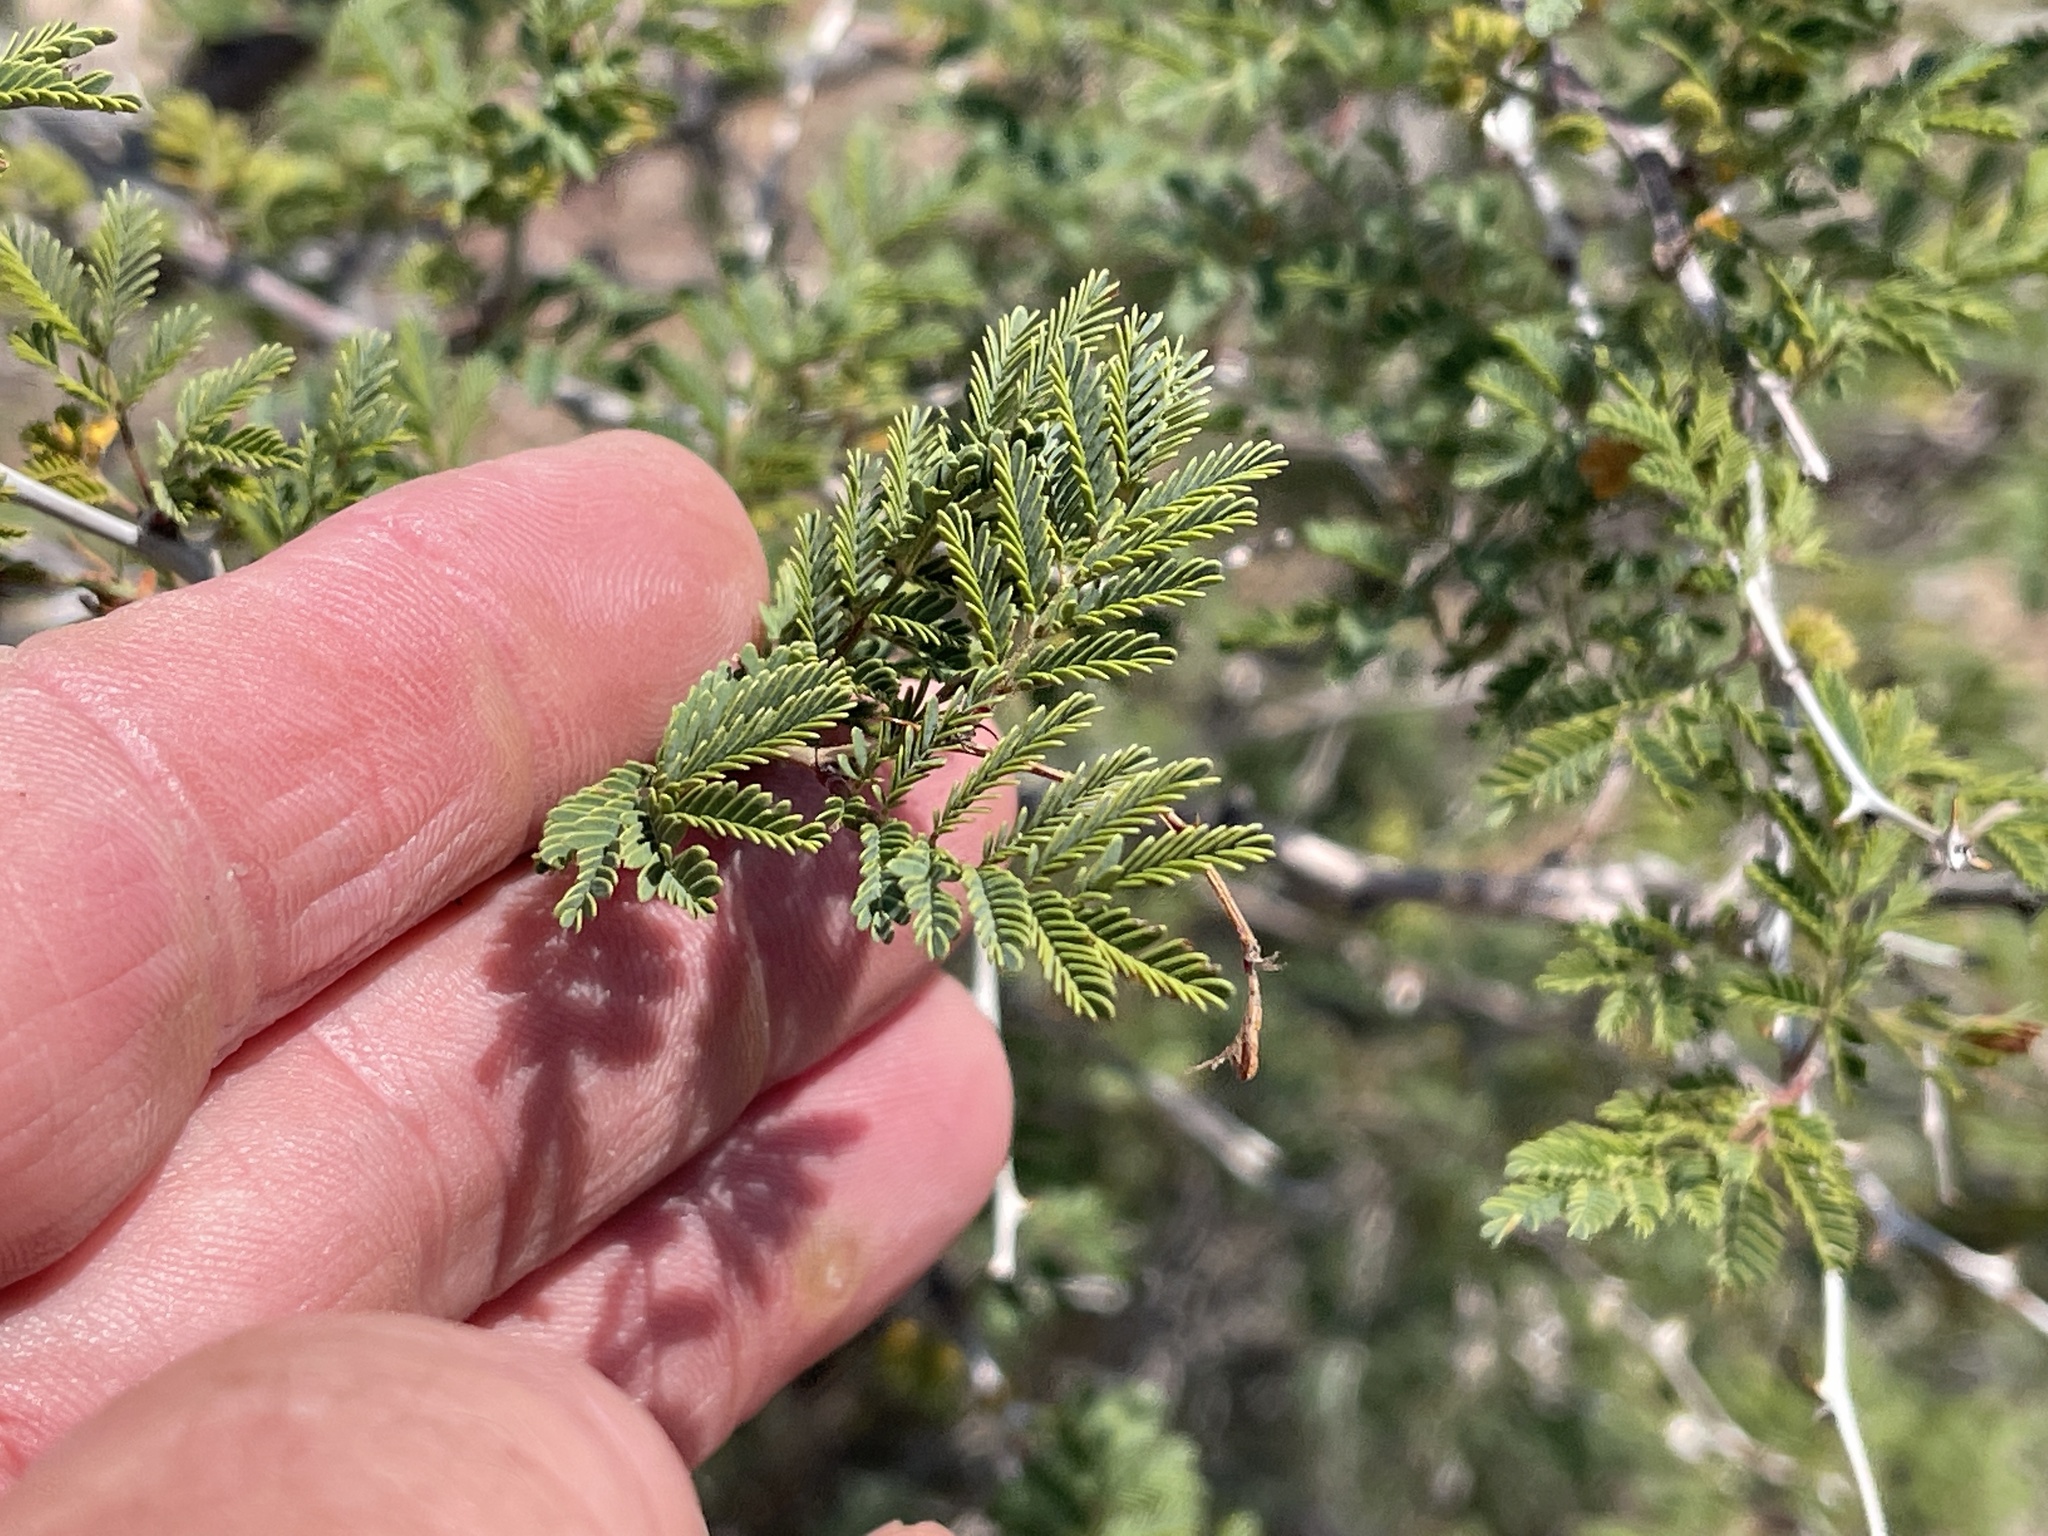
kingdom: Plantae
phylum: Tracheophyta
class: Magnoliopsida
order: Fabales
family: Fabaceae
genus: Senegalia
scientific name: Senegalia greggii
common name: Texas-mimosa
